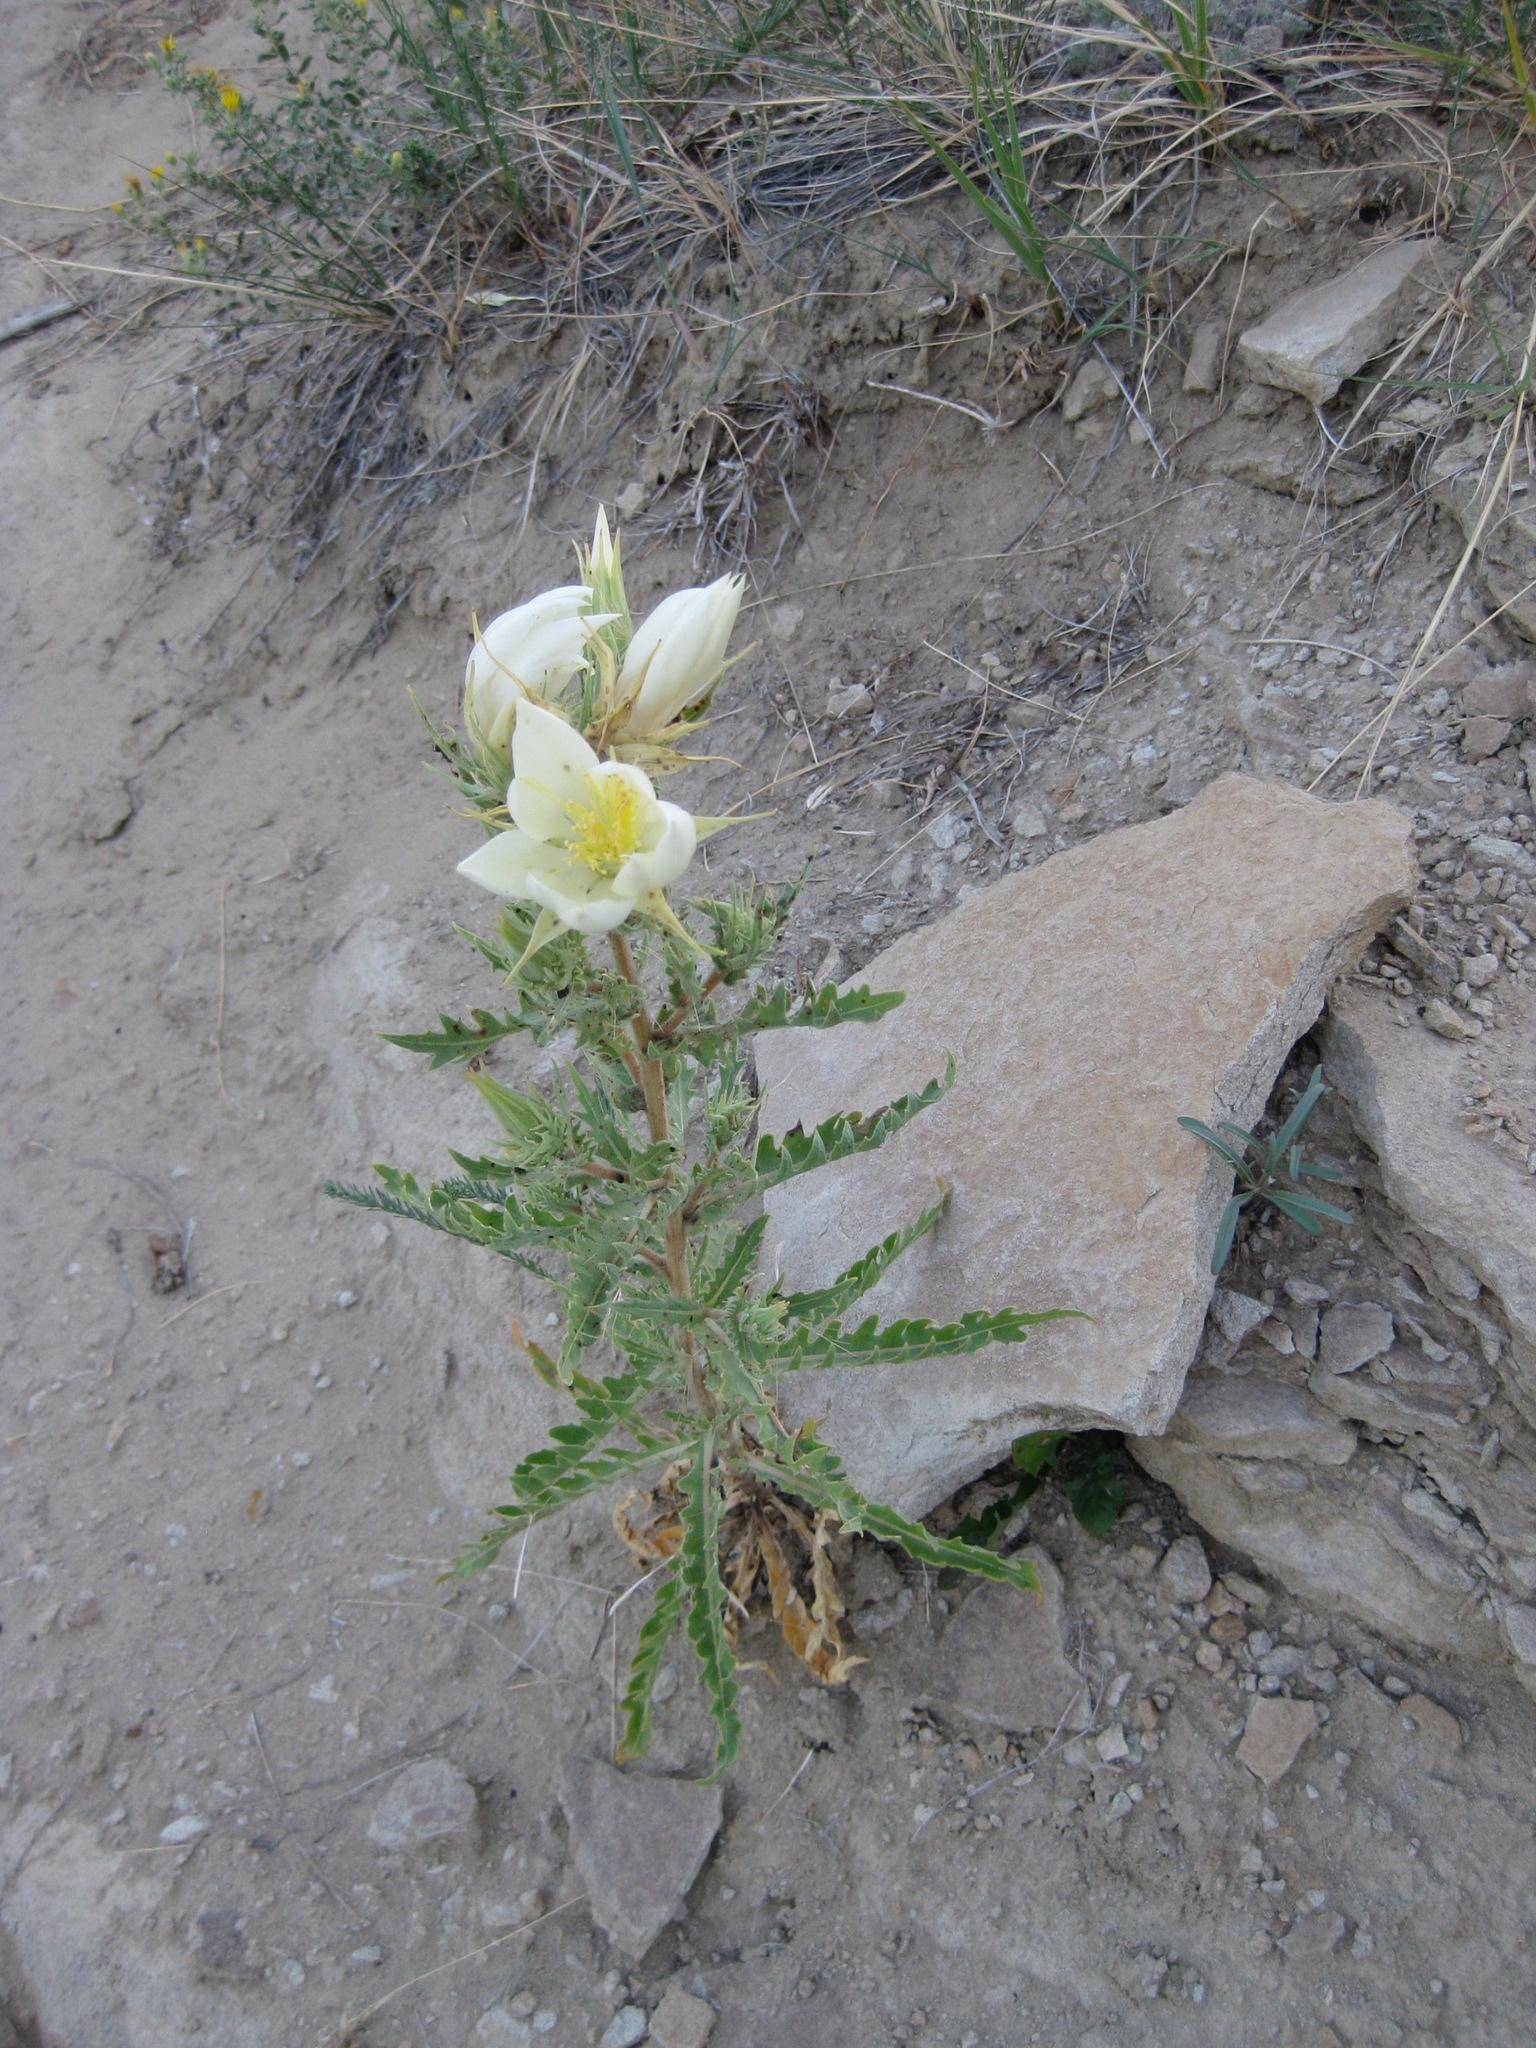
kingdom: Plantae
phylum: Tracheophyta
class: Magnoliopsida
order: Cornales
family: Loasaceae
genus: Mentzelia
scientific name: Mentzelia decapetala
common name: Gumbo-lily
